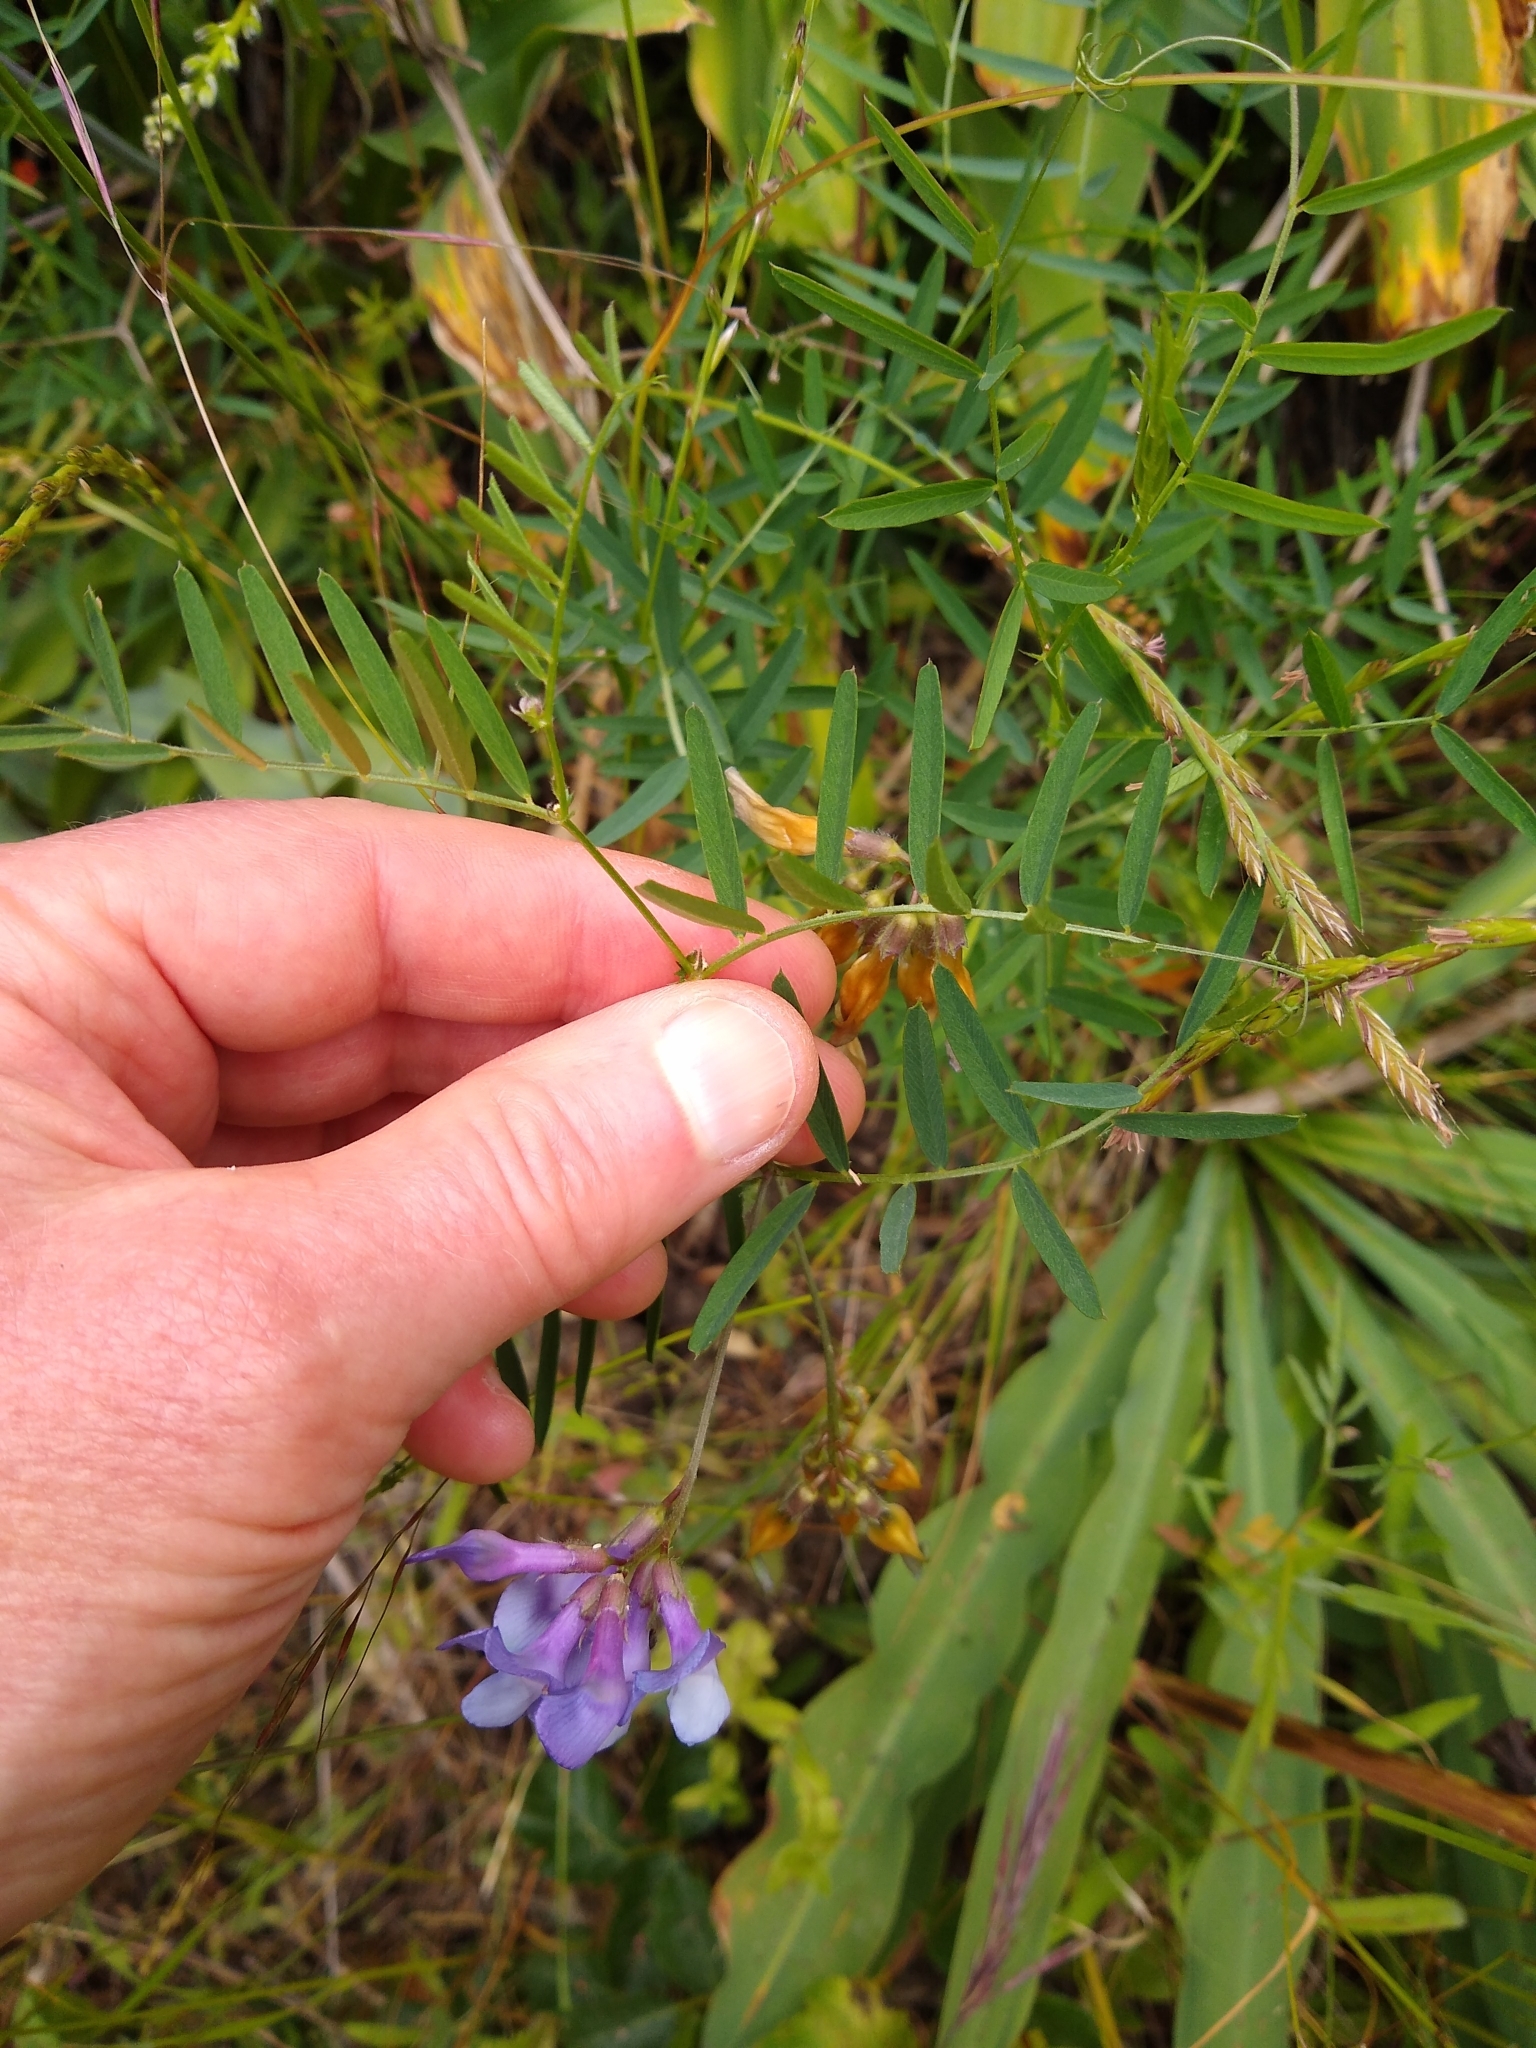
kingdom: Plantae
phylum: Tracheophyta
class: Magnoliopsida
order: Fabales
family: Fabaceae
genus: Vicia
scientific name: Vicia americana
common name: American vetch
